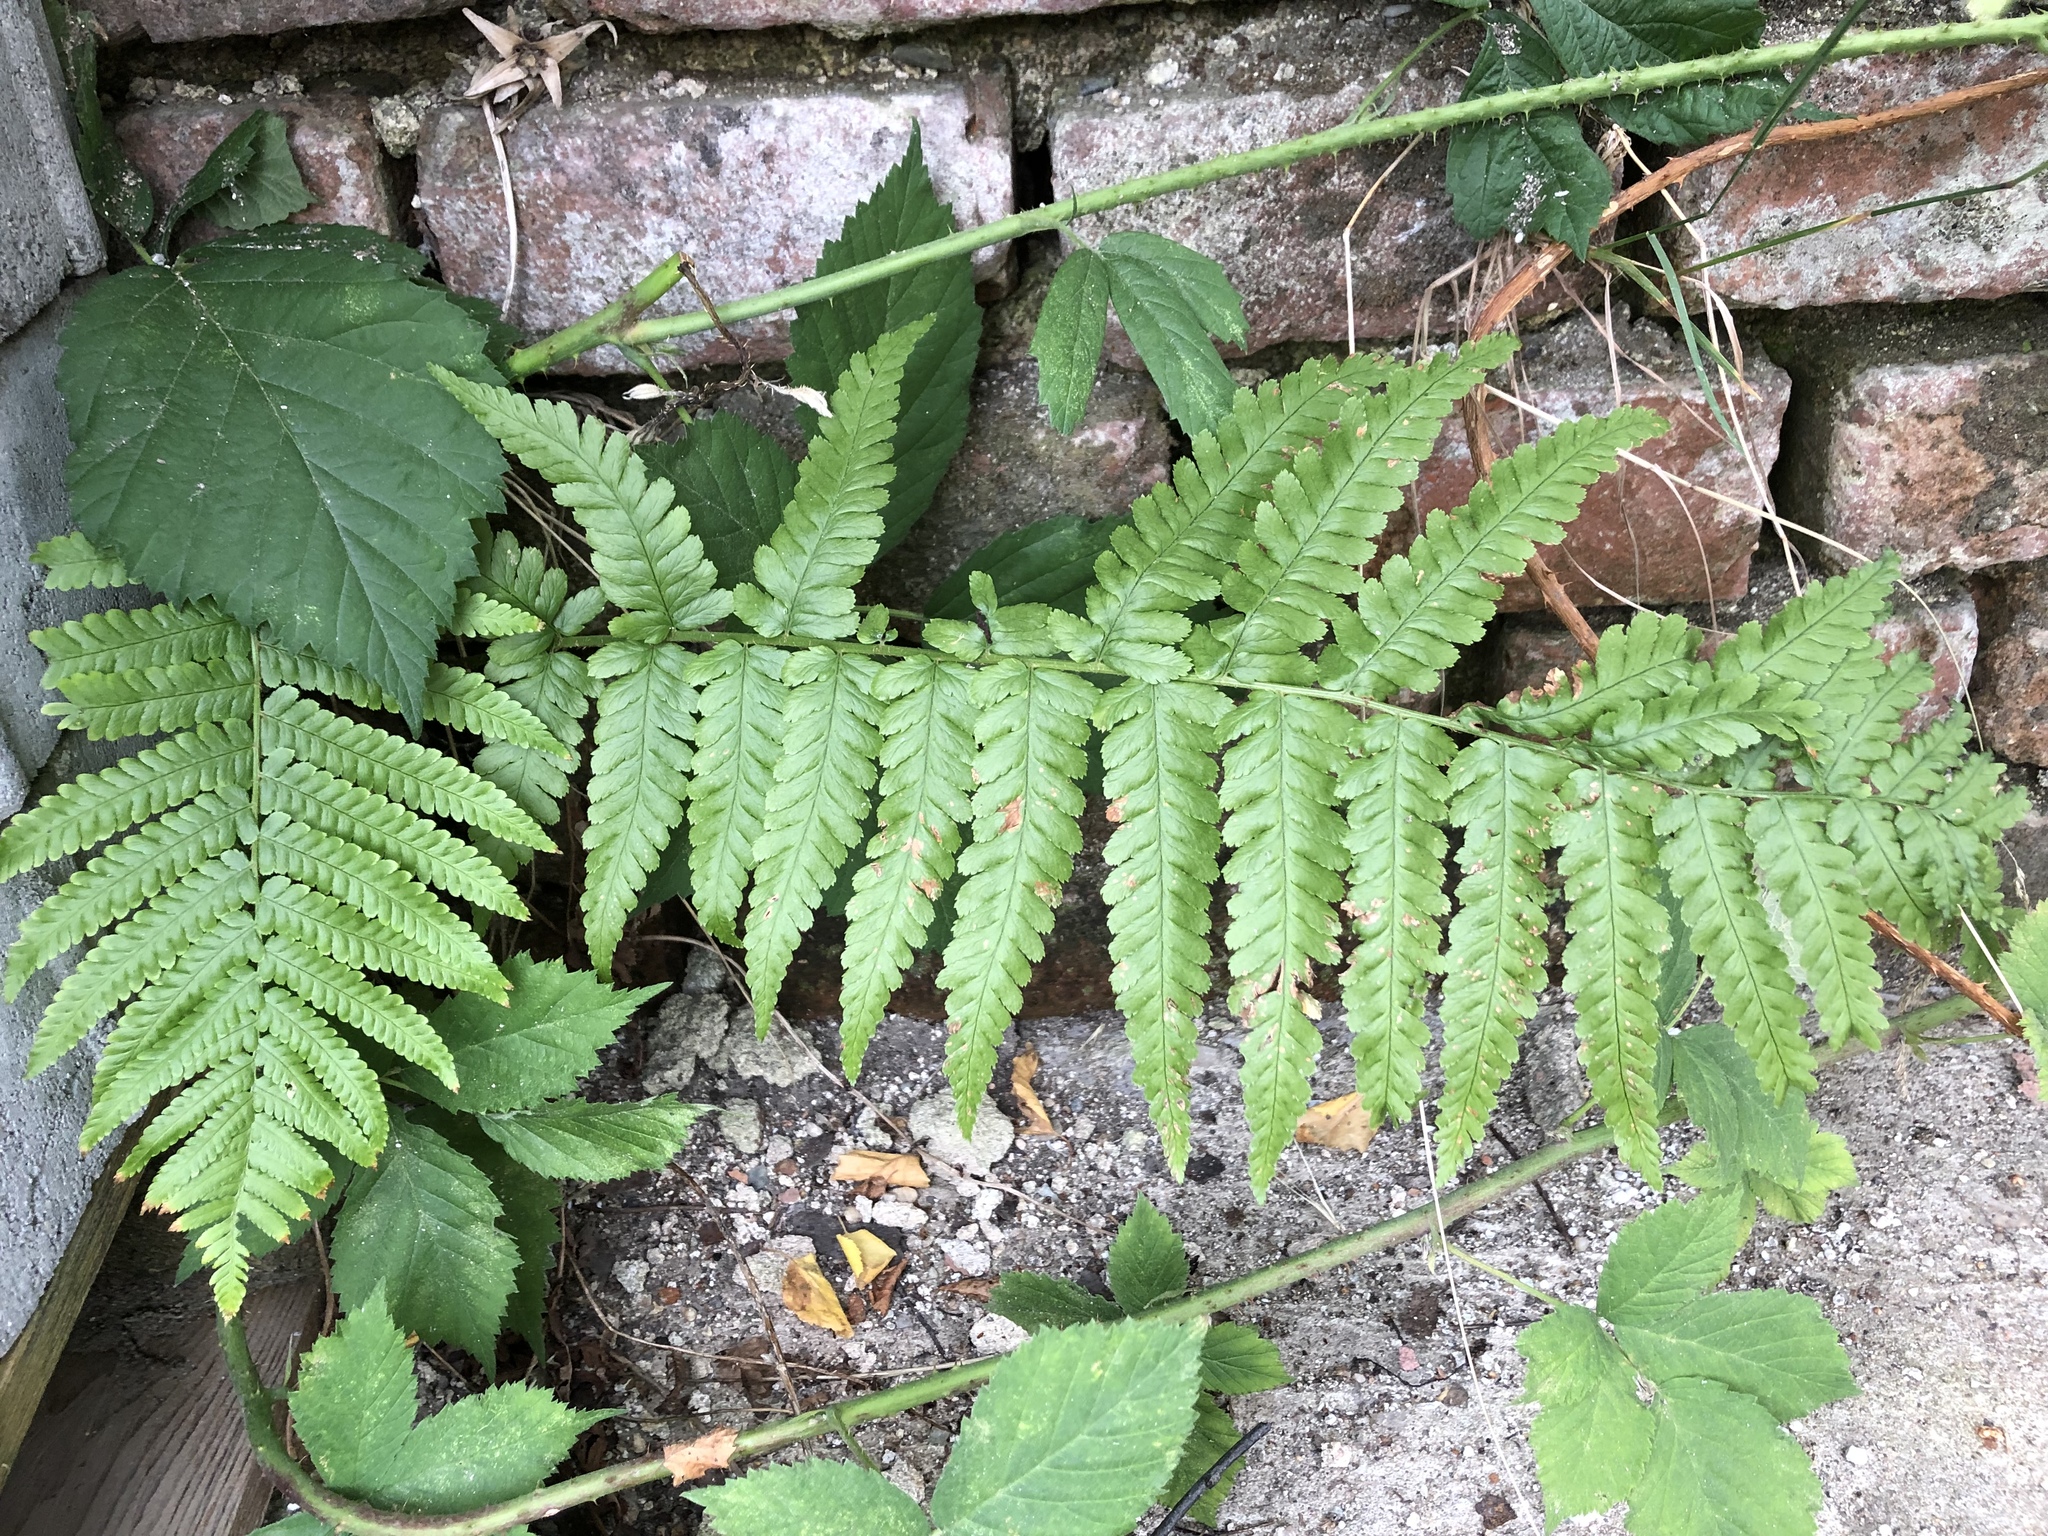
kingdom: Plantae
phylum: Tracheophyta
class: Polypodiopsida
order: Polypodiales
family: Dryopteridaceae
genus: Dryopteris
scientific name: Dryopteris filix-mas
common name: Male fern
